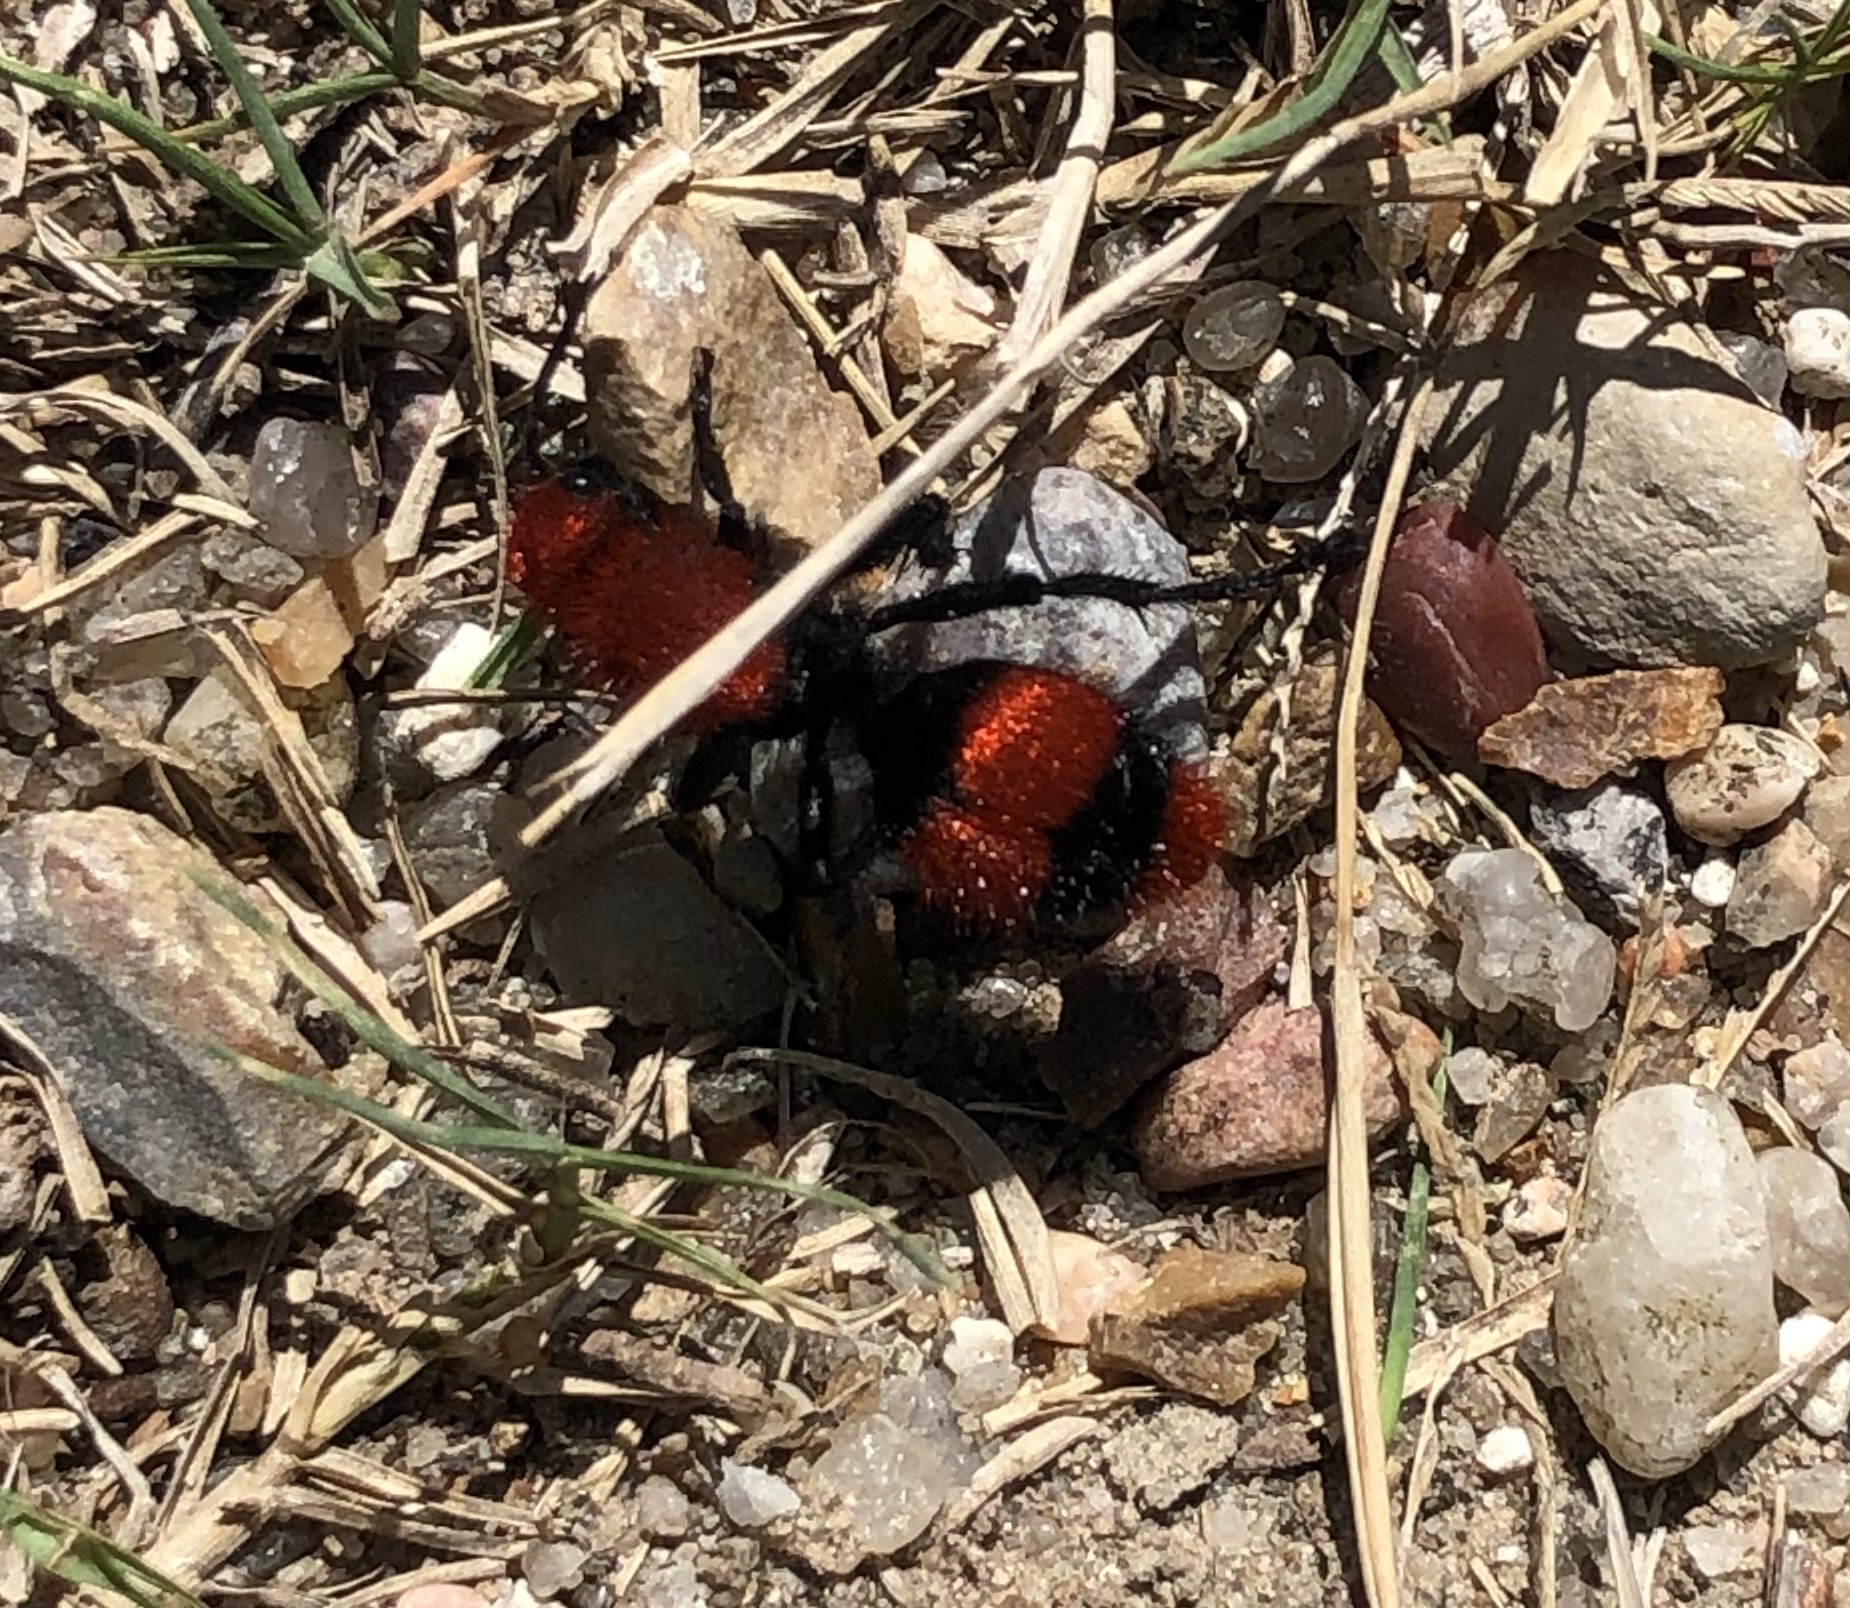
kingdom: Animalia
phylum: Arthropoda
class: Insecta
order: Hymenoptera
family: Mutillidae
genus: Dasymutilla
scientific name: Dasymutilla occidentalis
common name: Common eastern velvet ant
